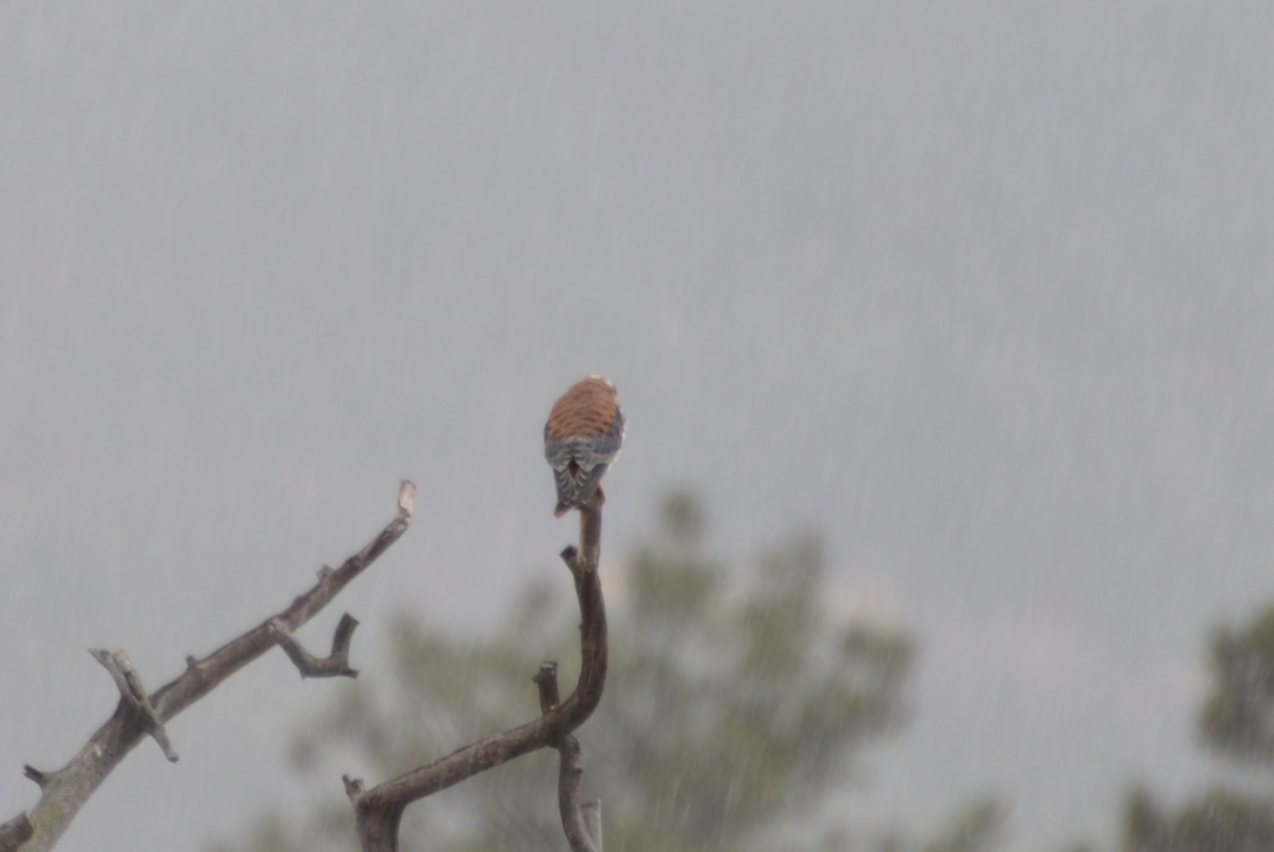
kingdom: Animalia
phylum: Chordata
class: Aves
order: Falconiformes
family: Falconidae
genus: Falco
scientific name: Falco sparverius
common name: American kestrel
